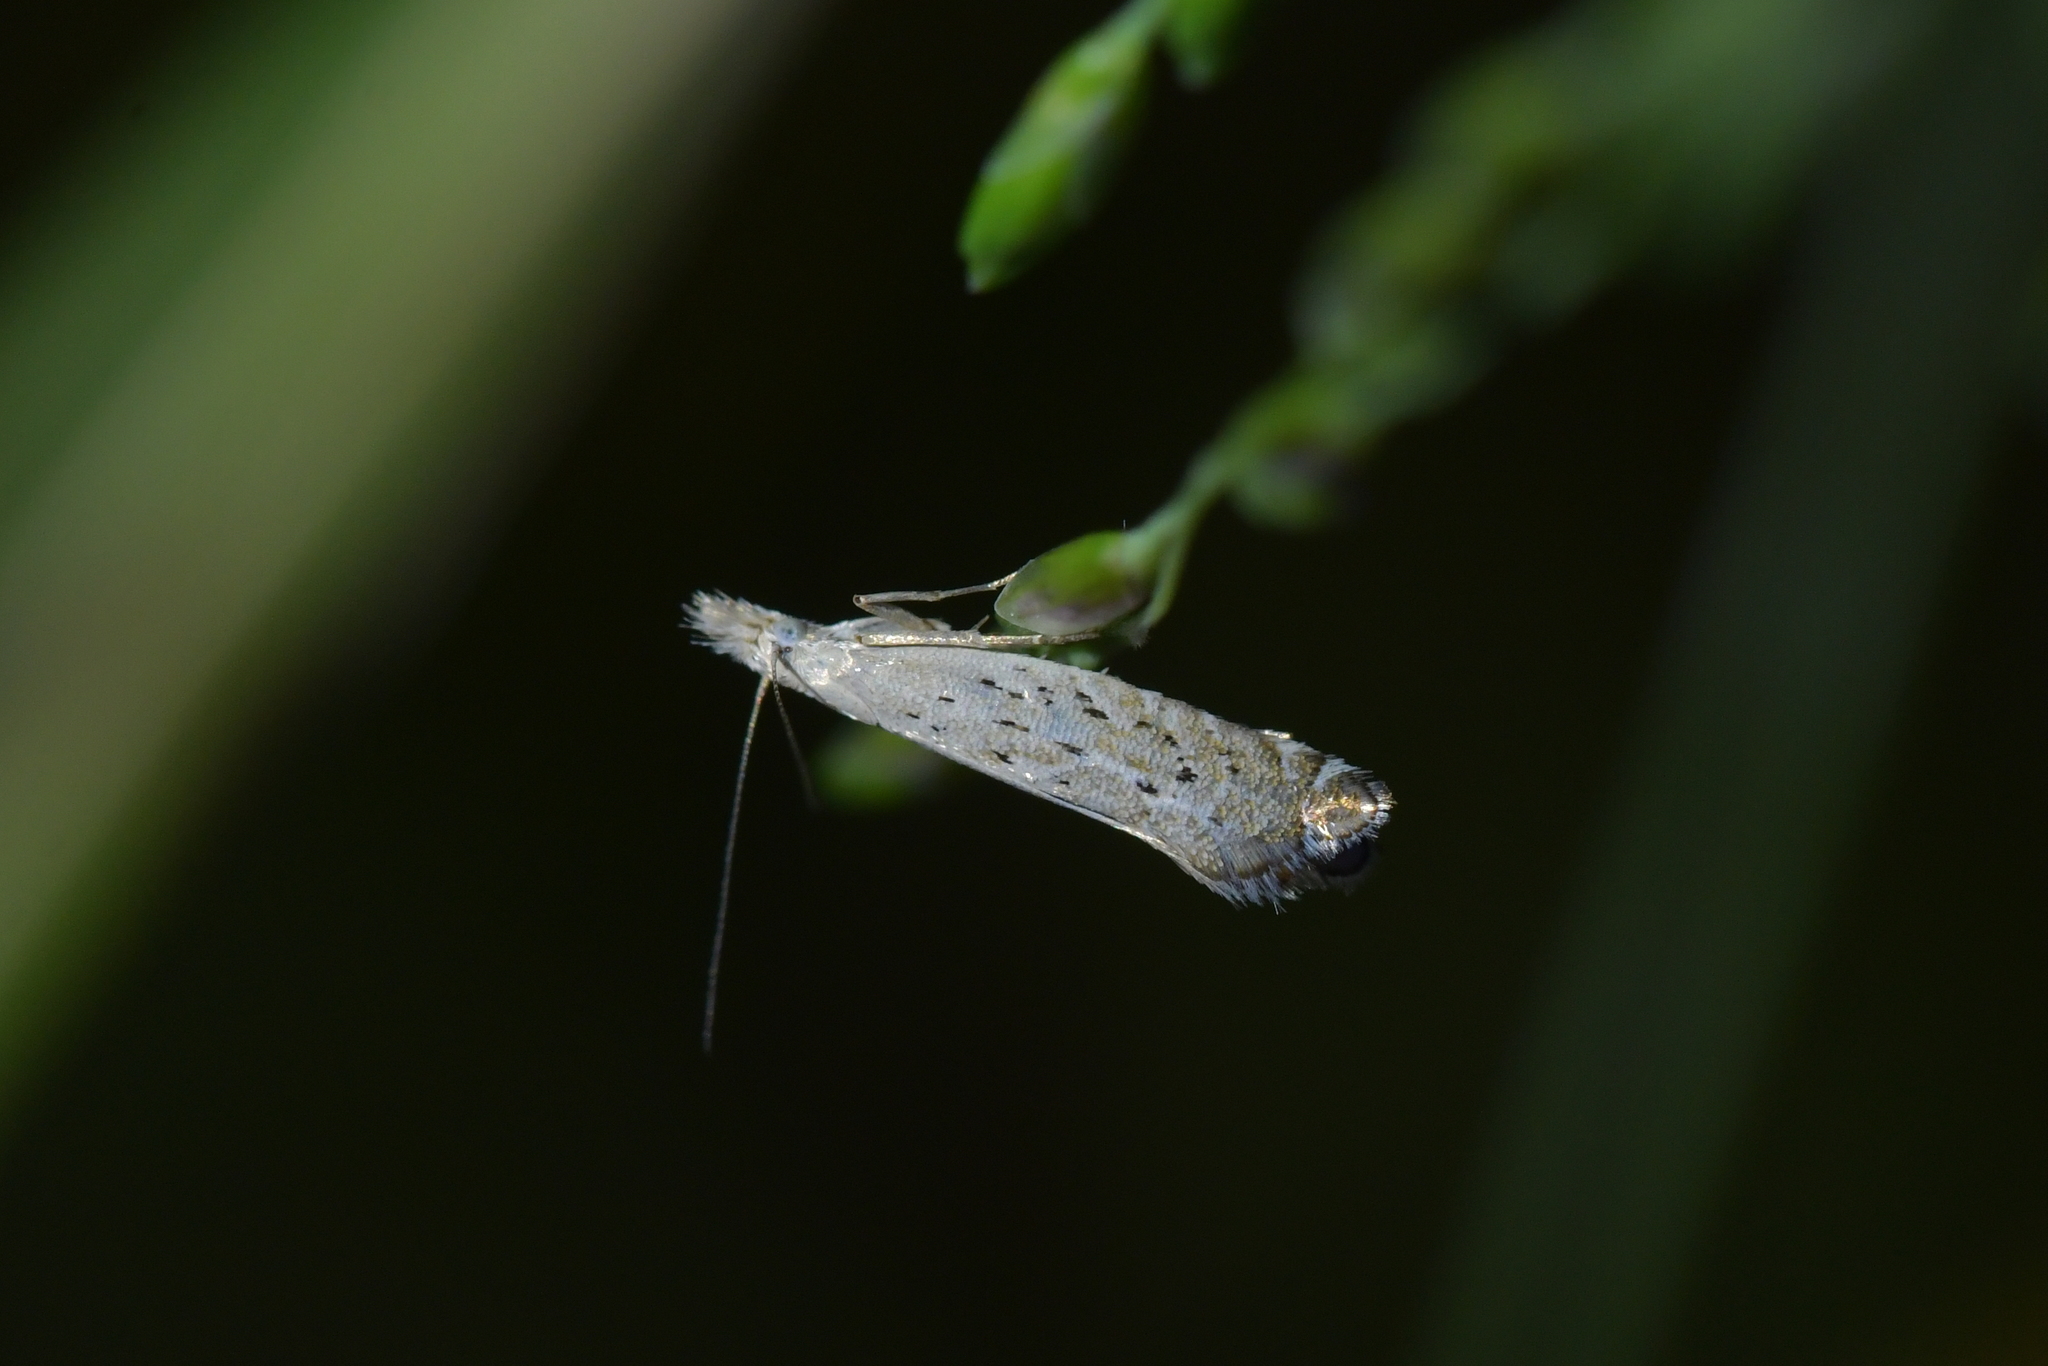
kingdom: Animalia
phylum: Arthropoda
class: Insecta
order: Lepidoptera
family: Glyphipterigidae
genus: Glyphipterix
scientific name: Glyphipterix achlyoessa
